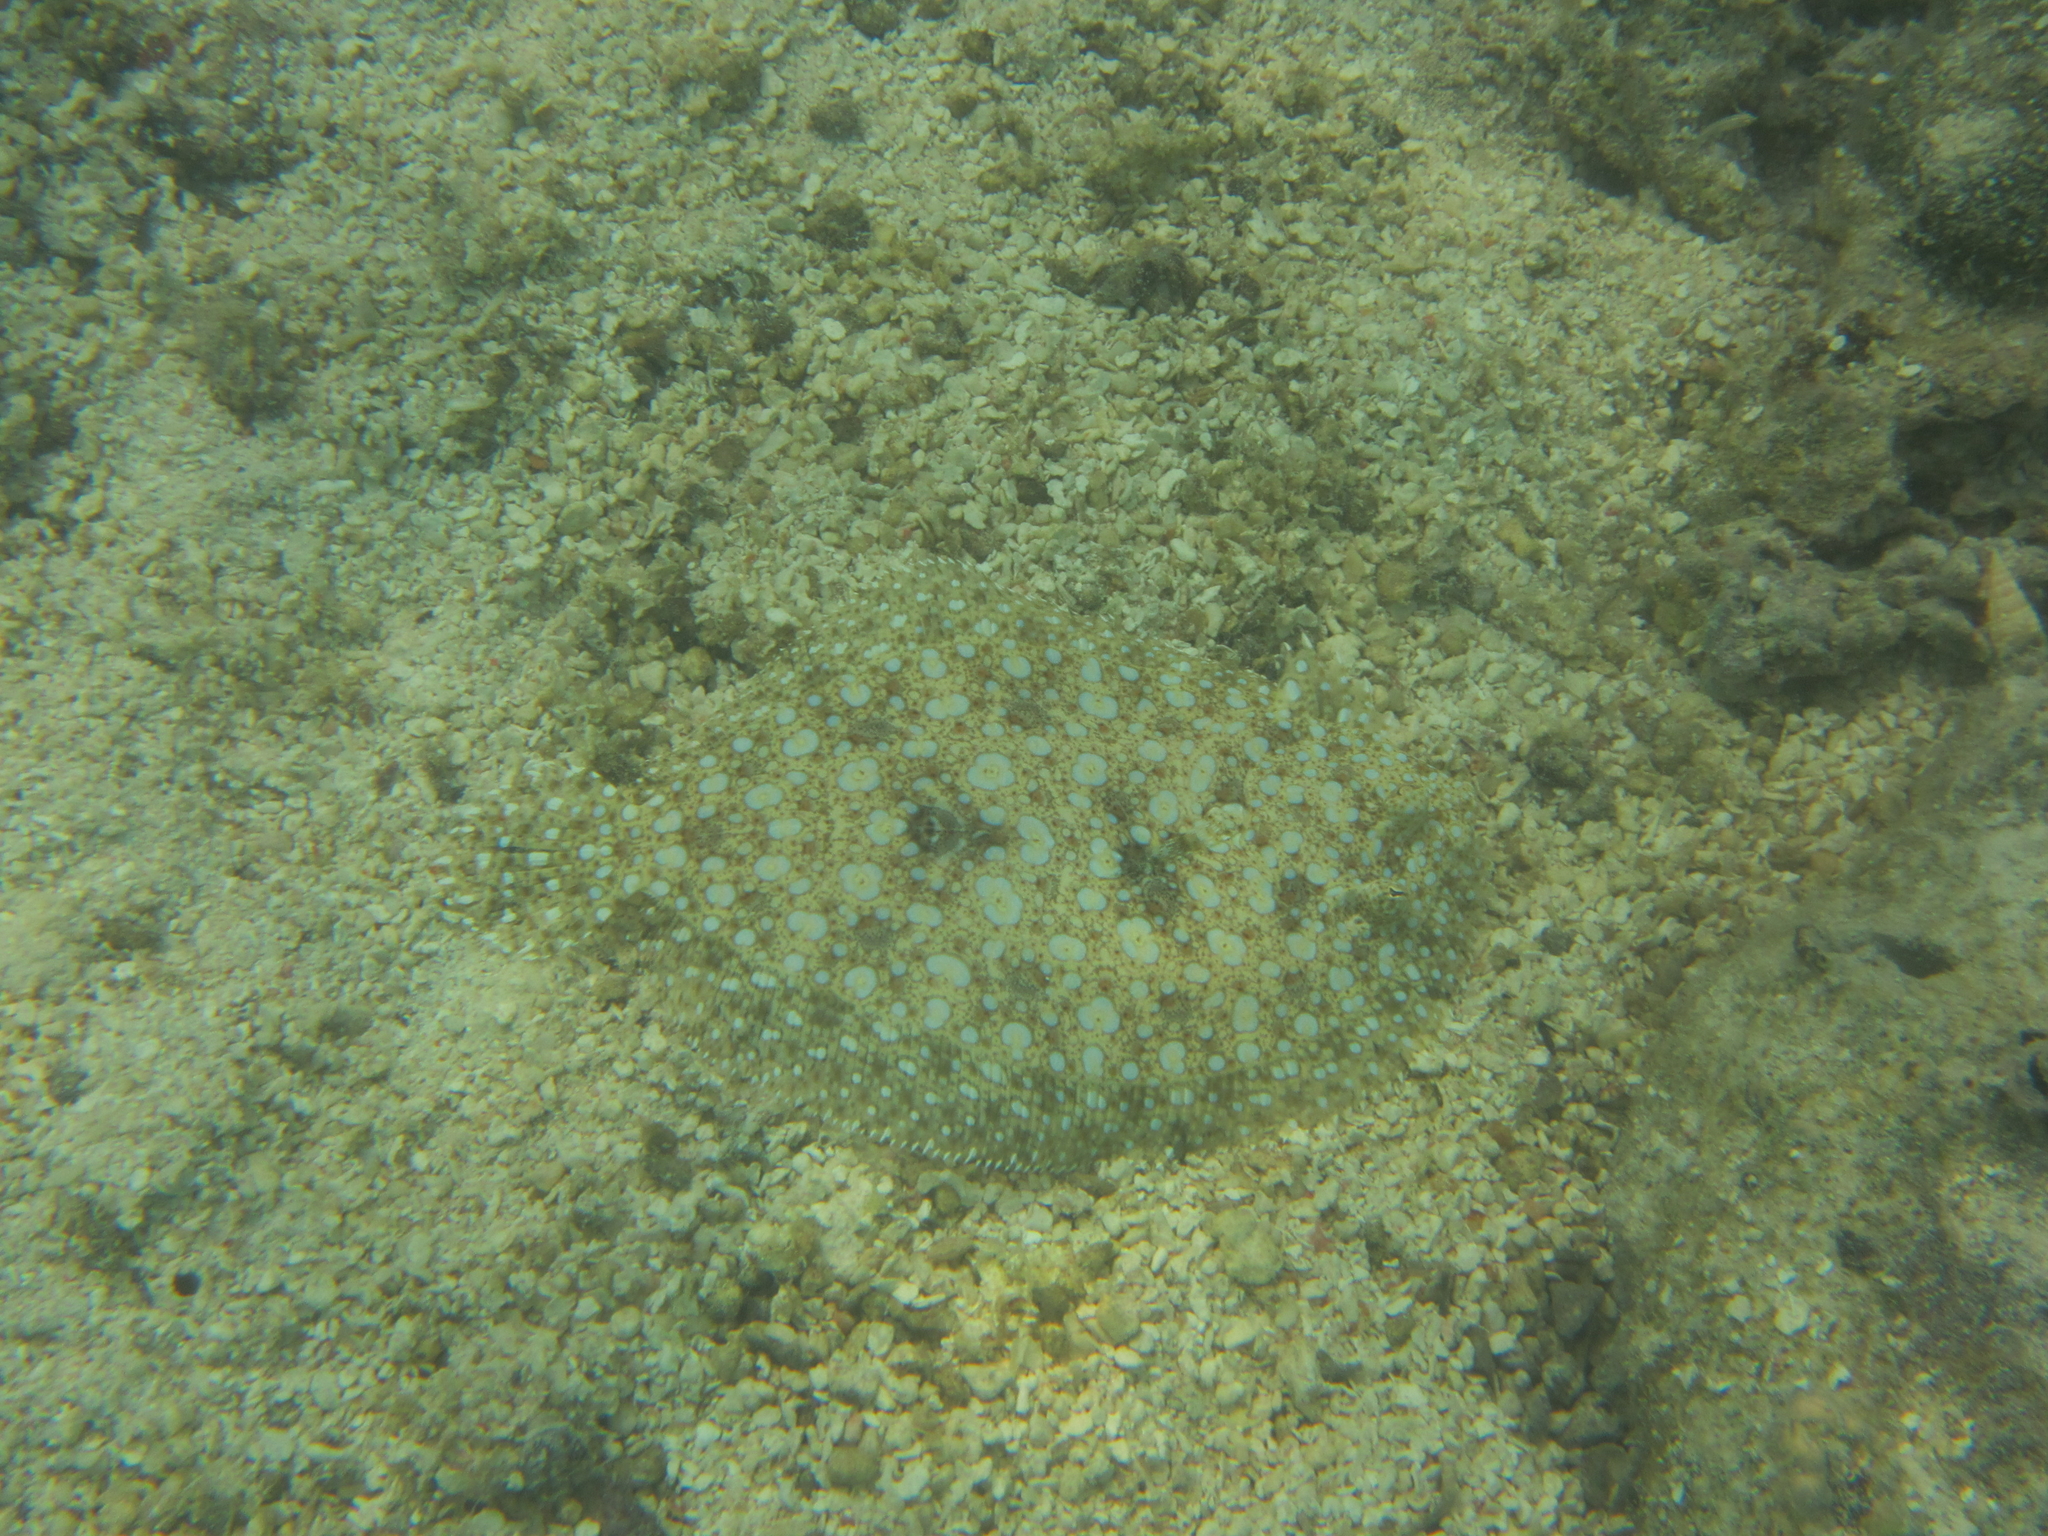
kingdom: Animalia
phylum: Chordata
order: Pleuronectiformes
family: Bothidae
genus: Bothus
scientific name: Bothus mancus
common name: Flowery flounder
